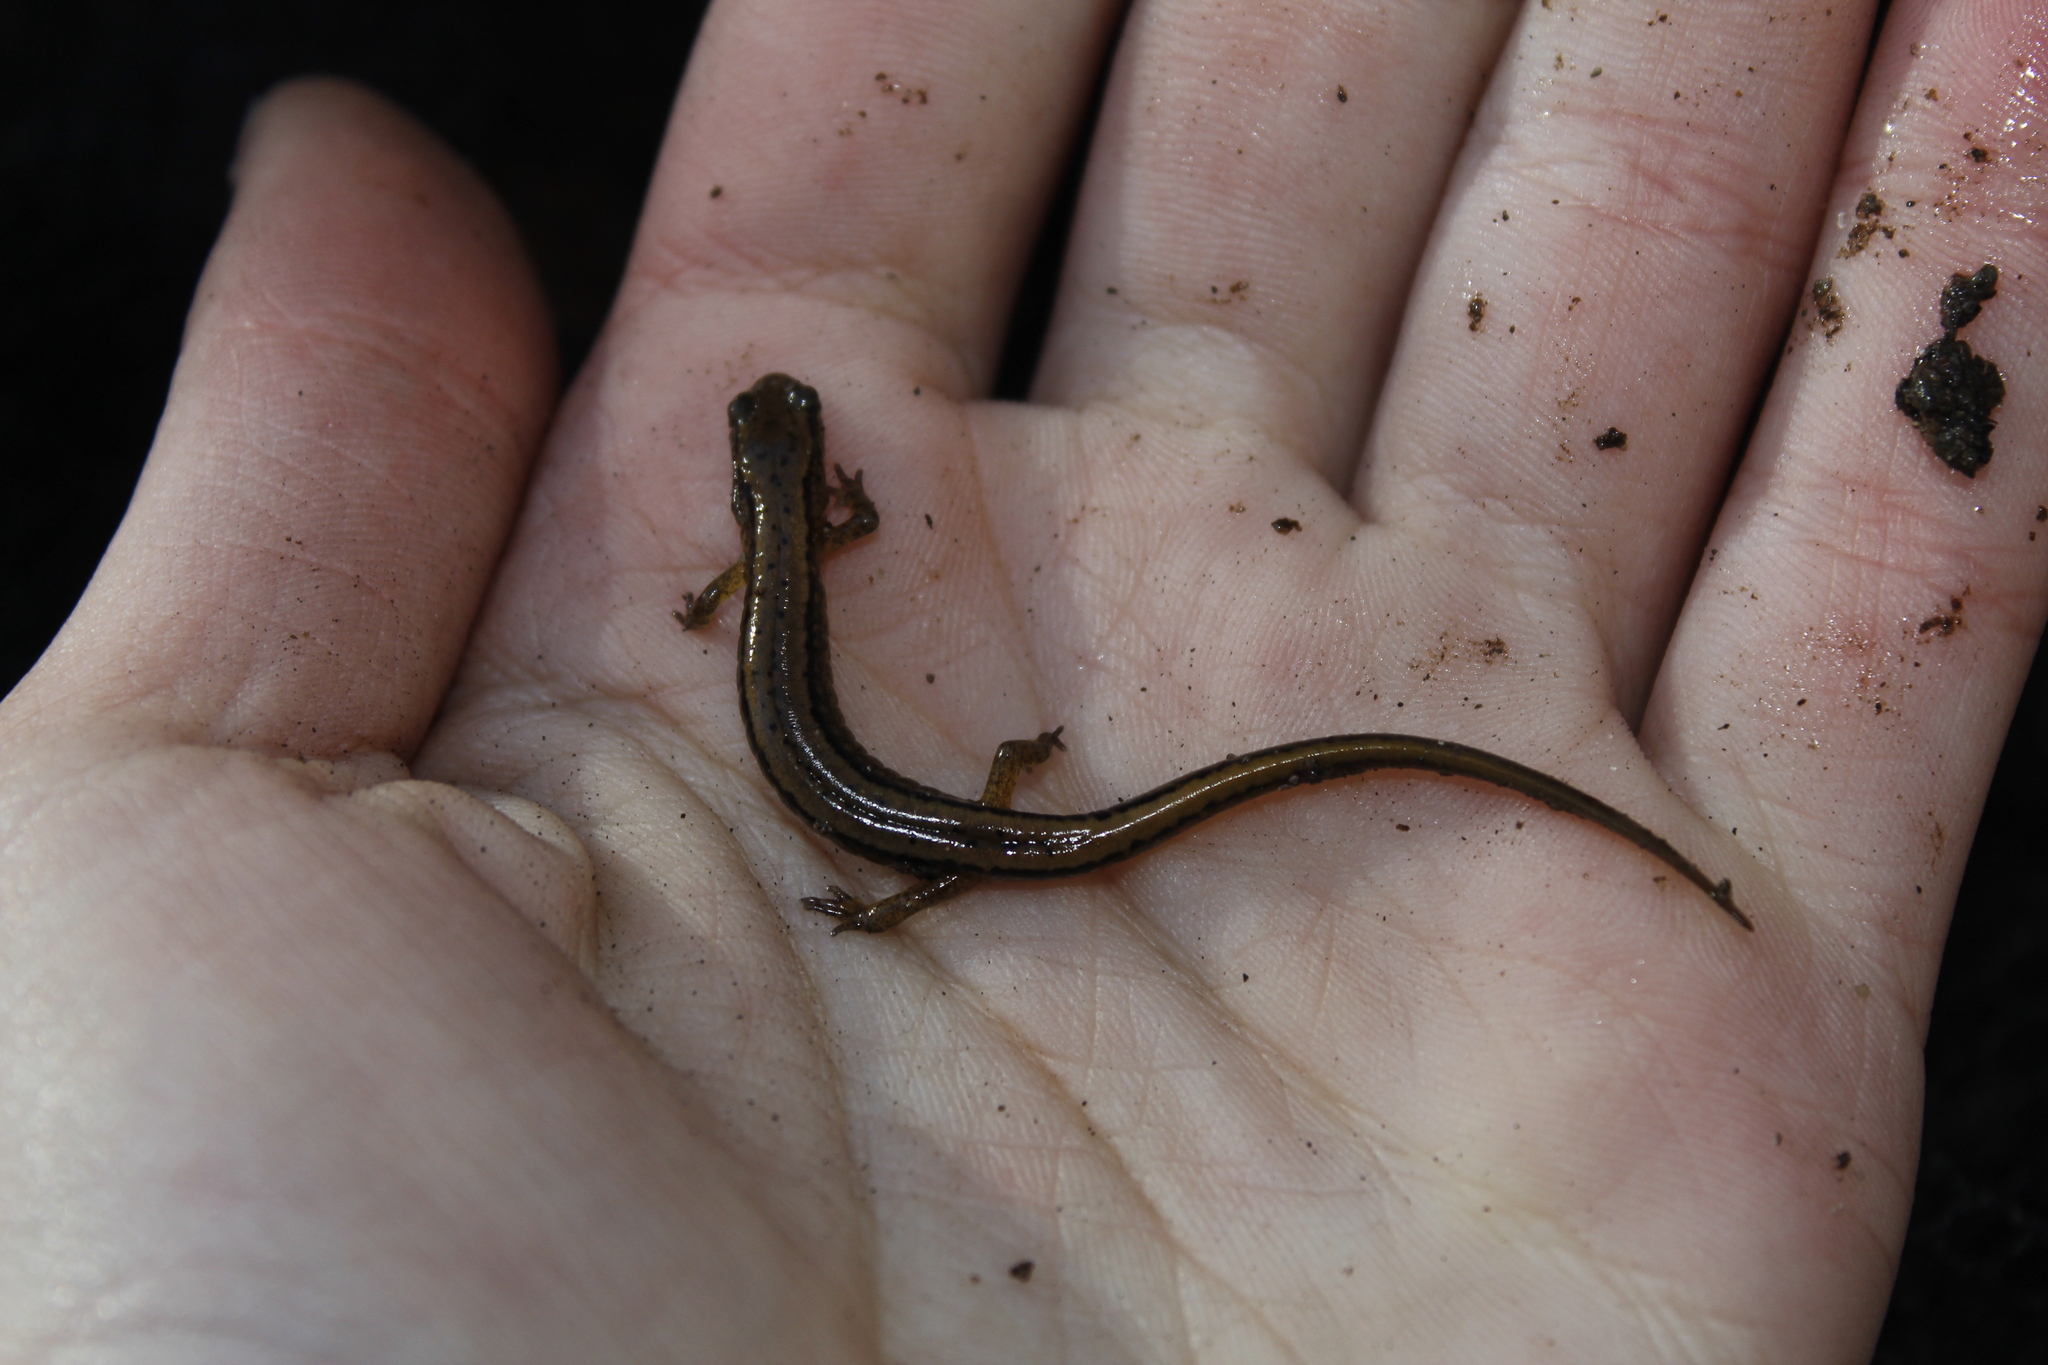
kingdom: Animalia
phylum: Chordata
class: Amphibia
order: Caudata
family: Plethodontidae
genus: Eurycea
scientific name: Eurycea bislineata
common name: Northern two-lined salamander
